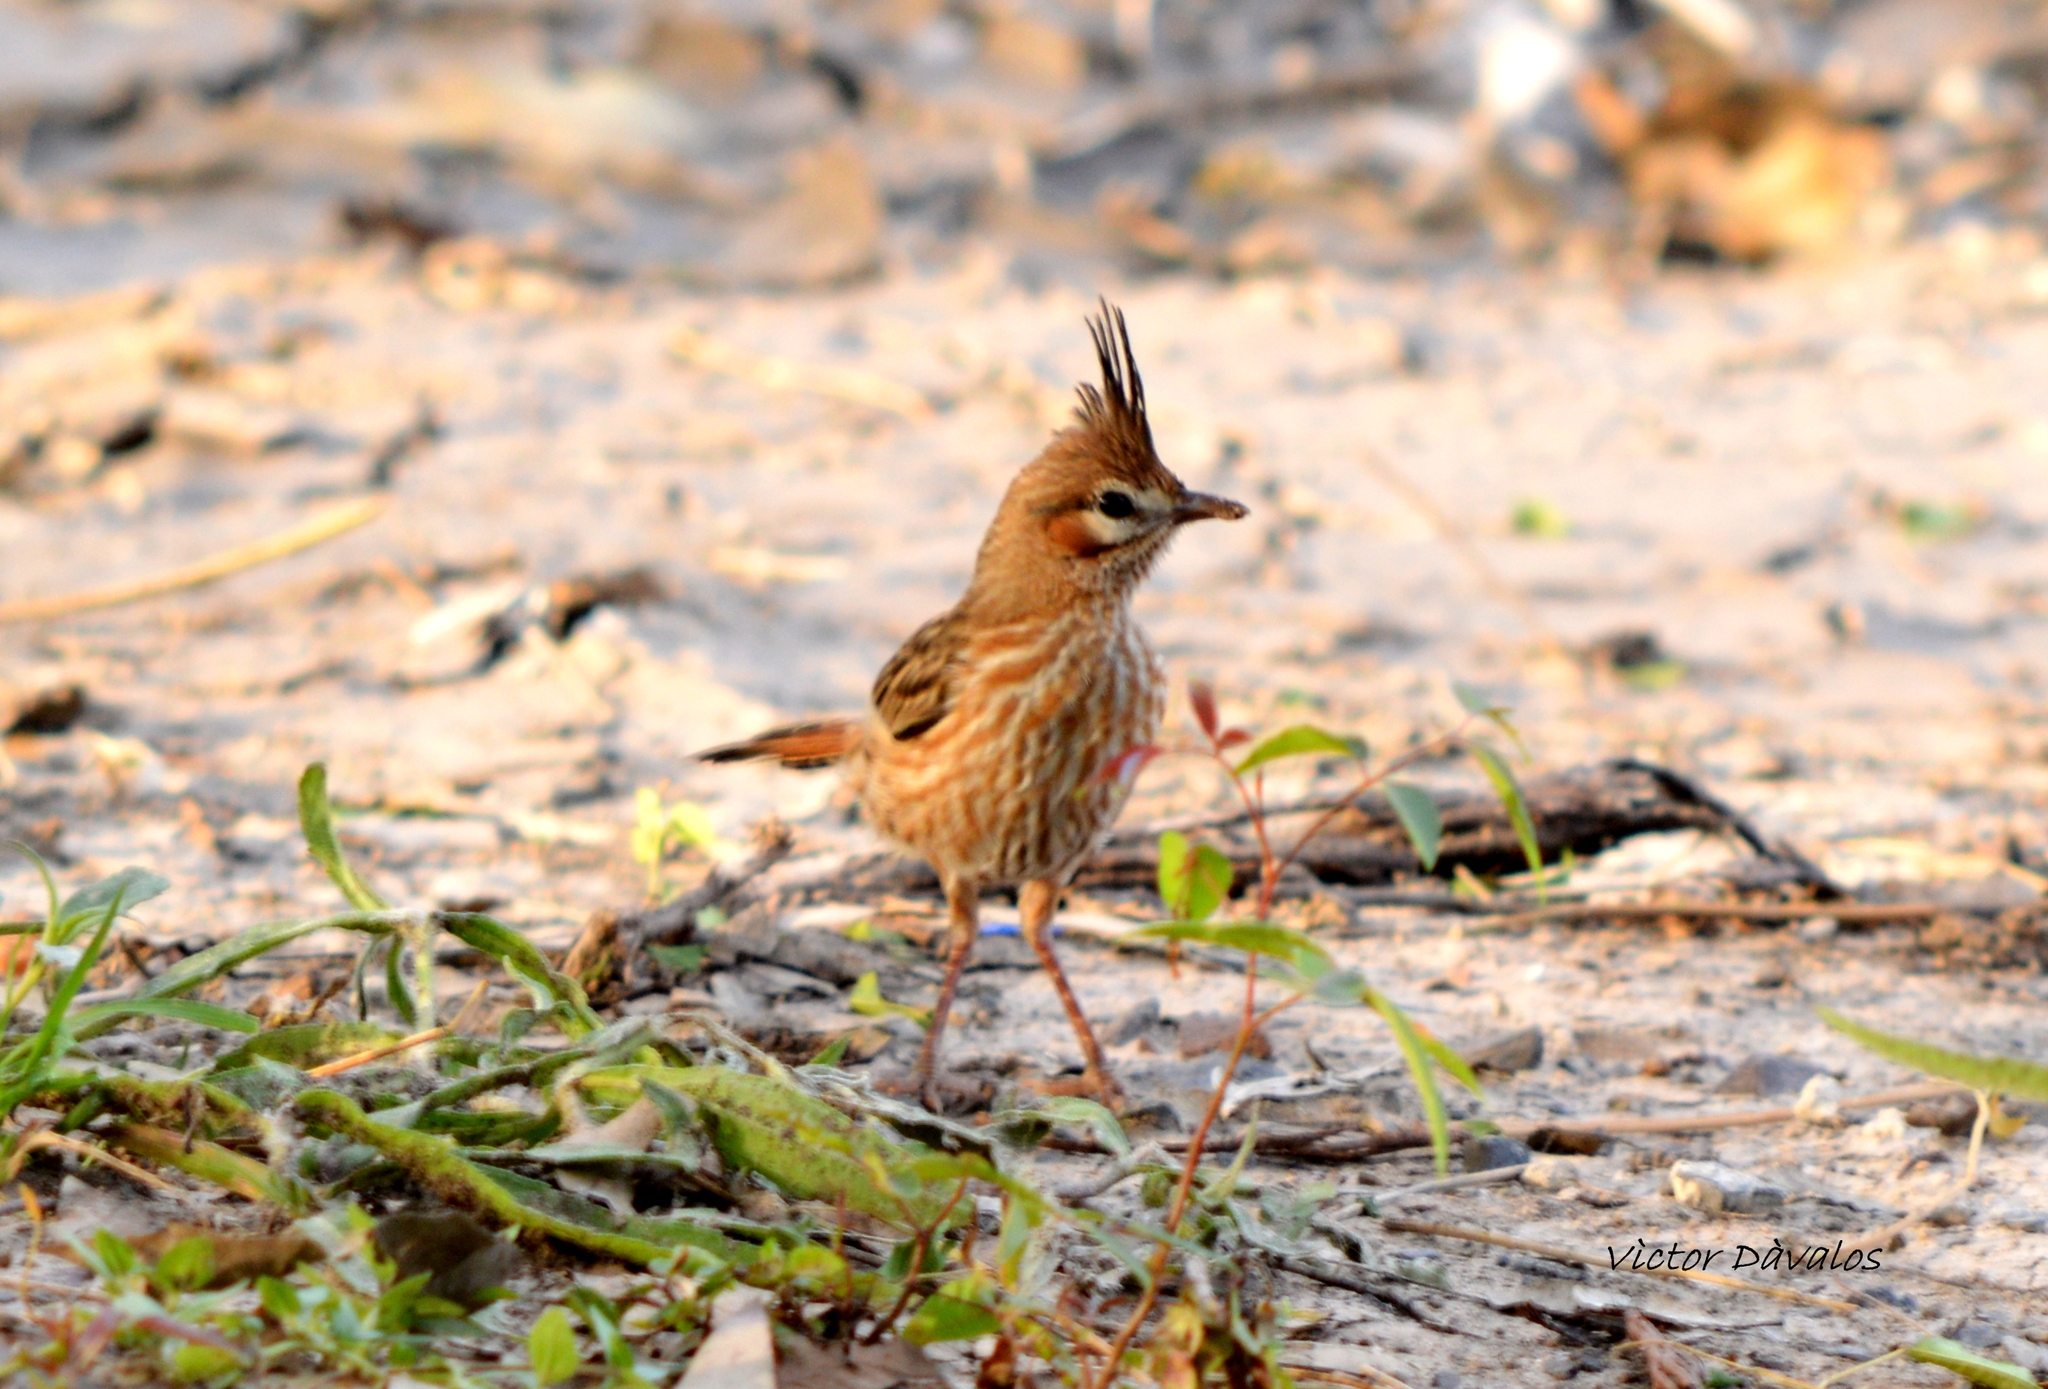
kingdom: Animalia
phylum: Chordata
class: Aves
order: Passeriformes
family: Furnariidae
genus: Coryphistera
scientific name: Coryphistera alaudina
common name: Lark-like brushrunner
